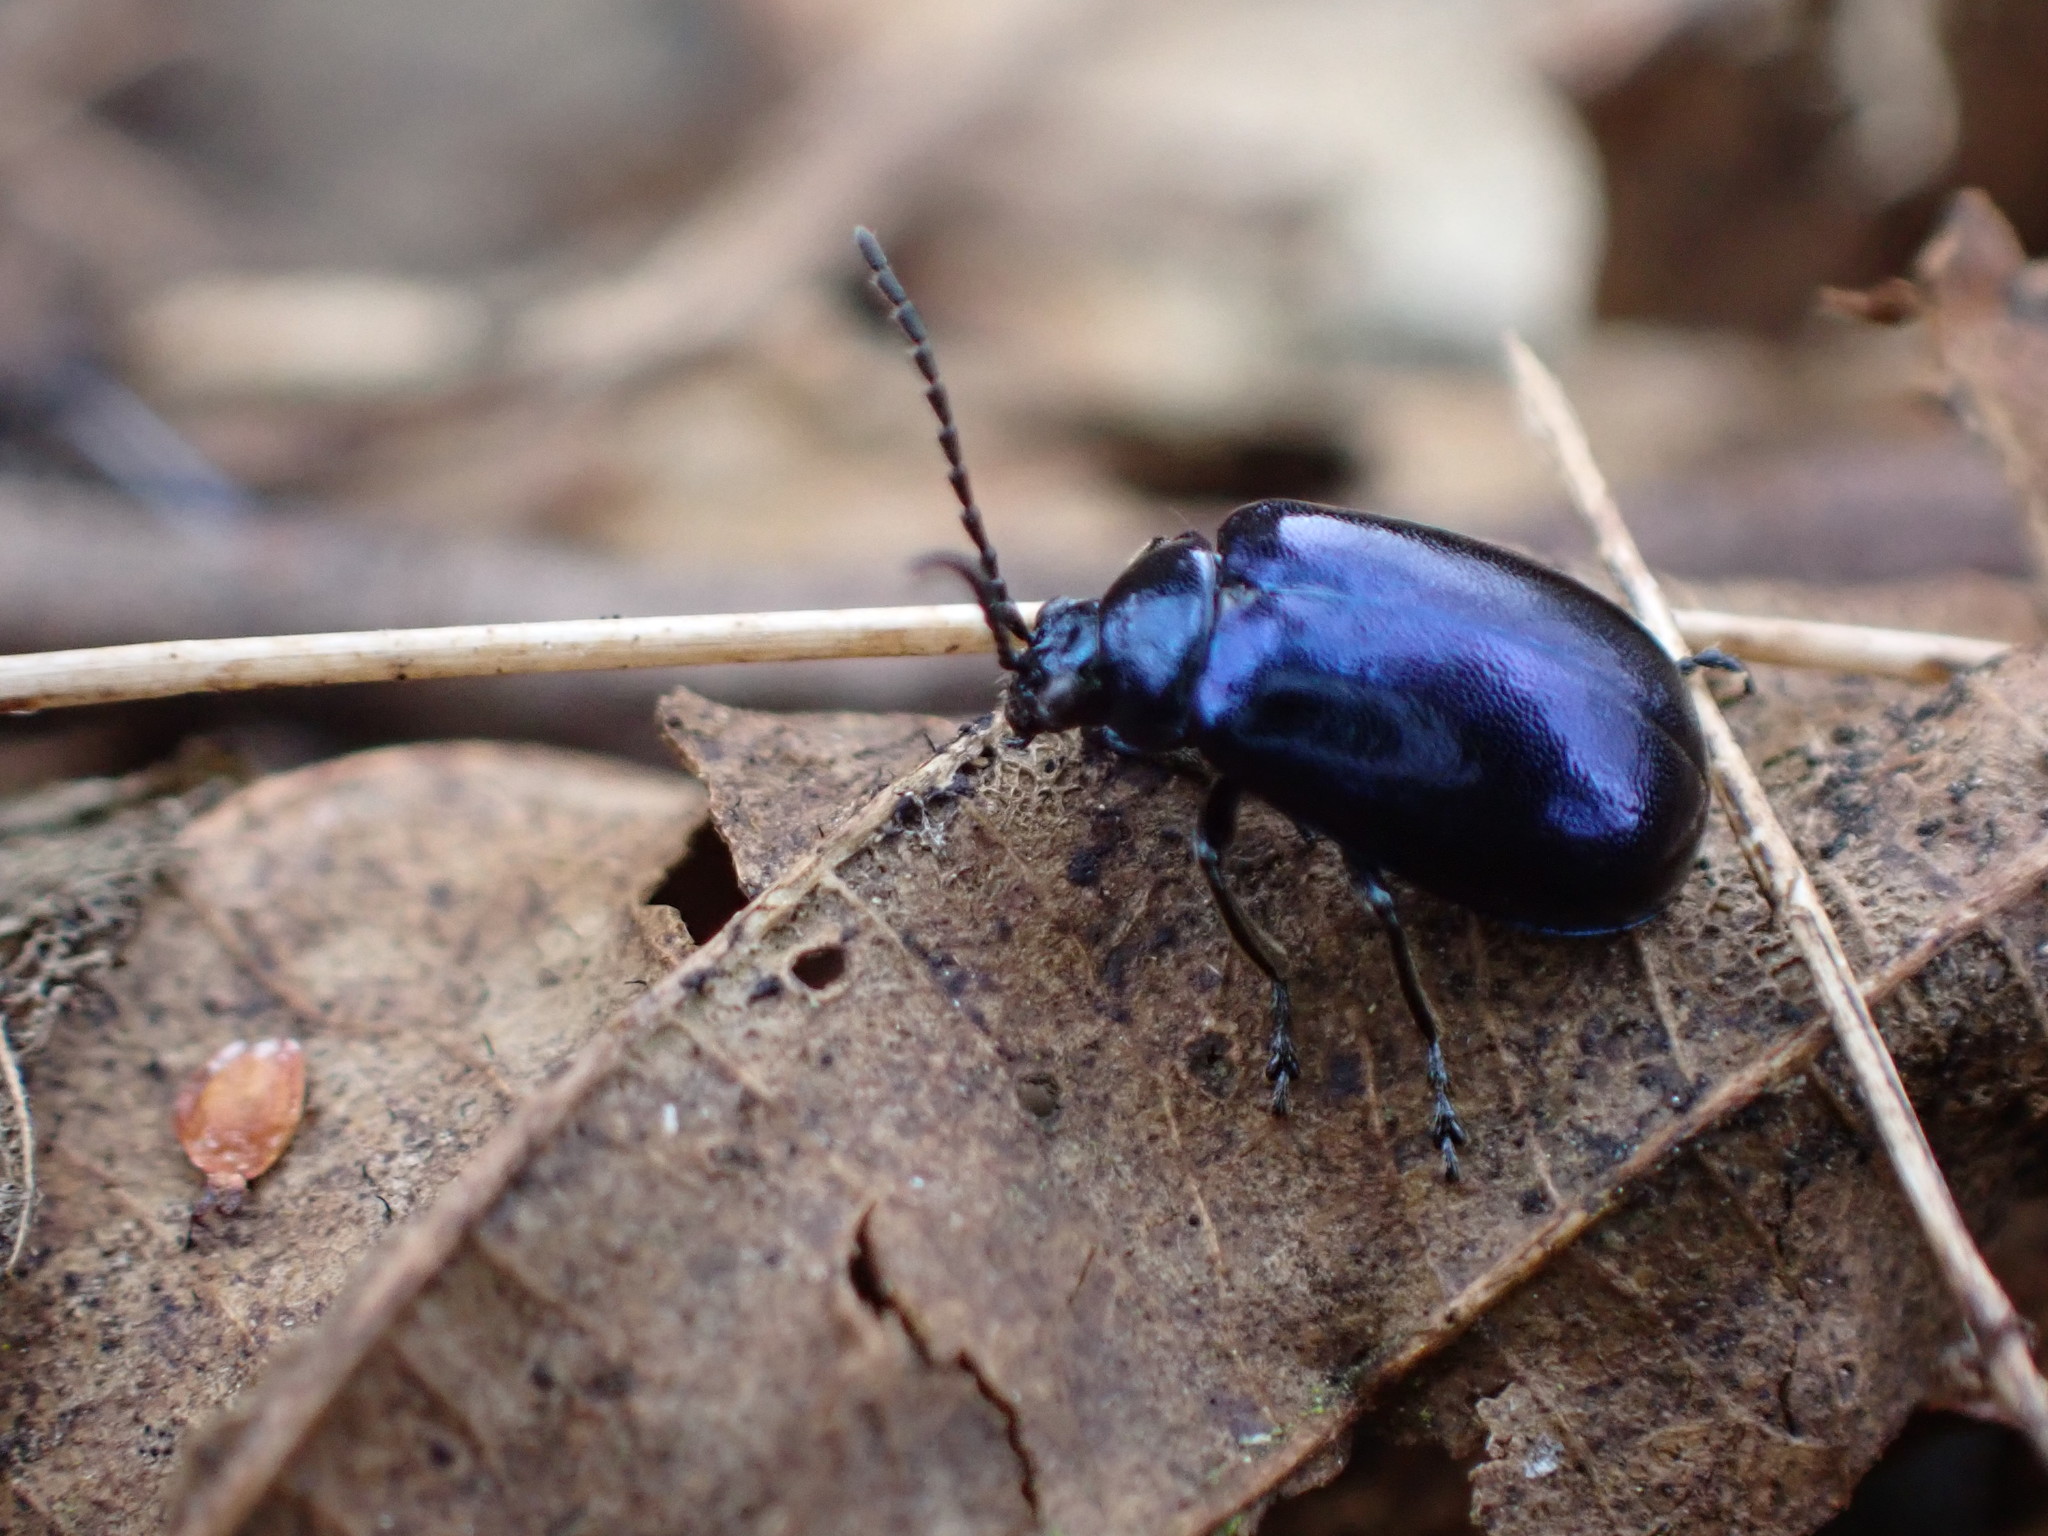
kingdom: Animalia
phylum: Arthropoda
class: Insecta
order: Coleoptera
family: Chrysomelidae
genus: Agelastica
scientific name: Agelastica alni
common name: Alder leaf beetle
